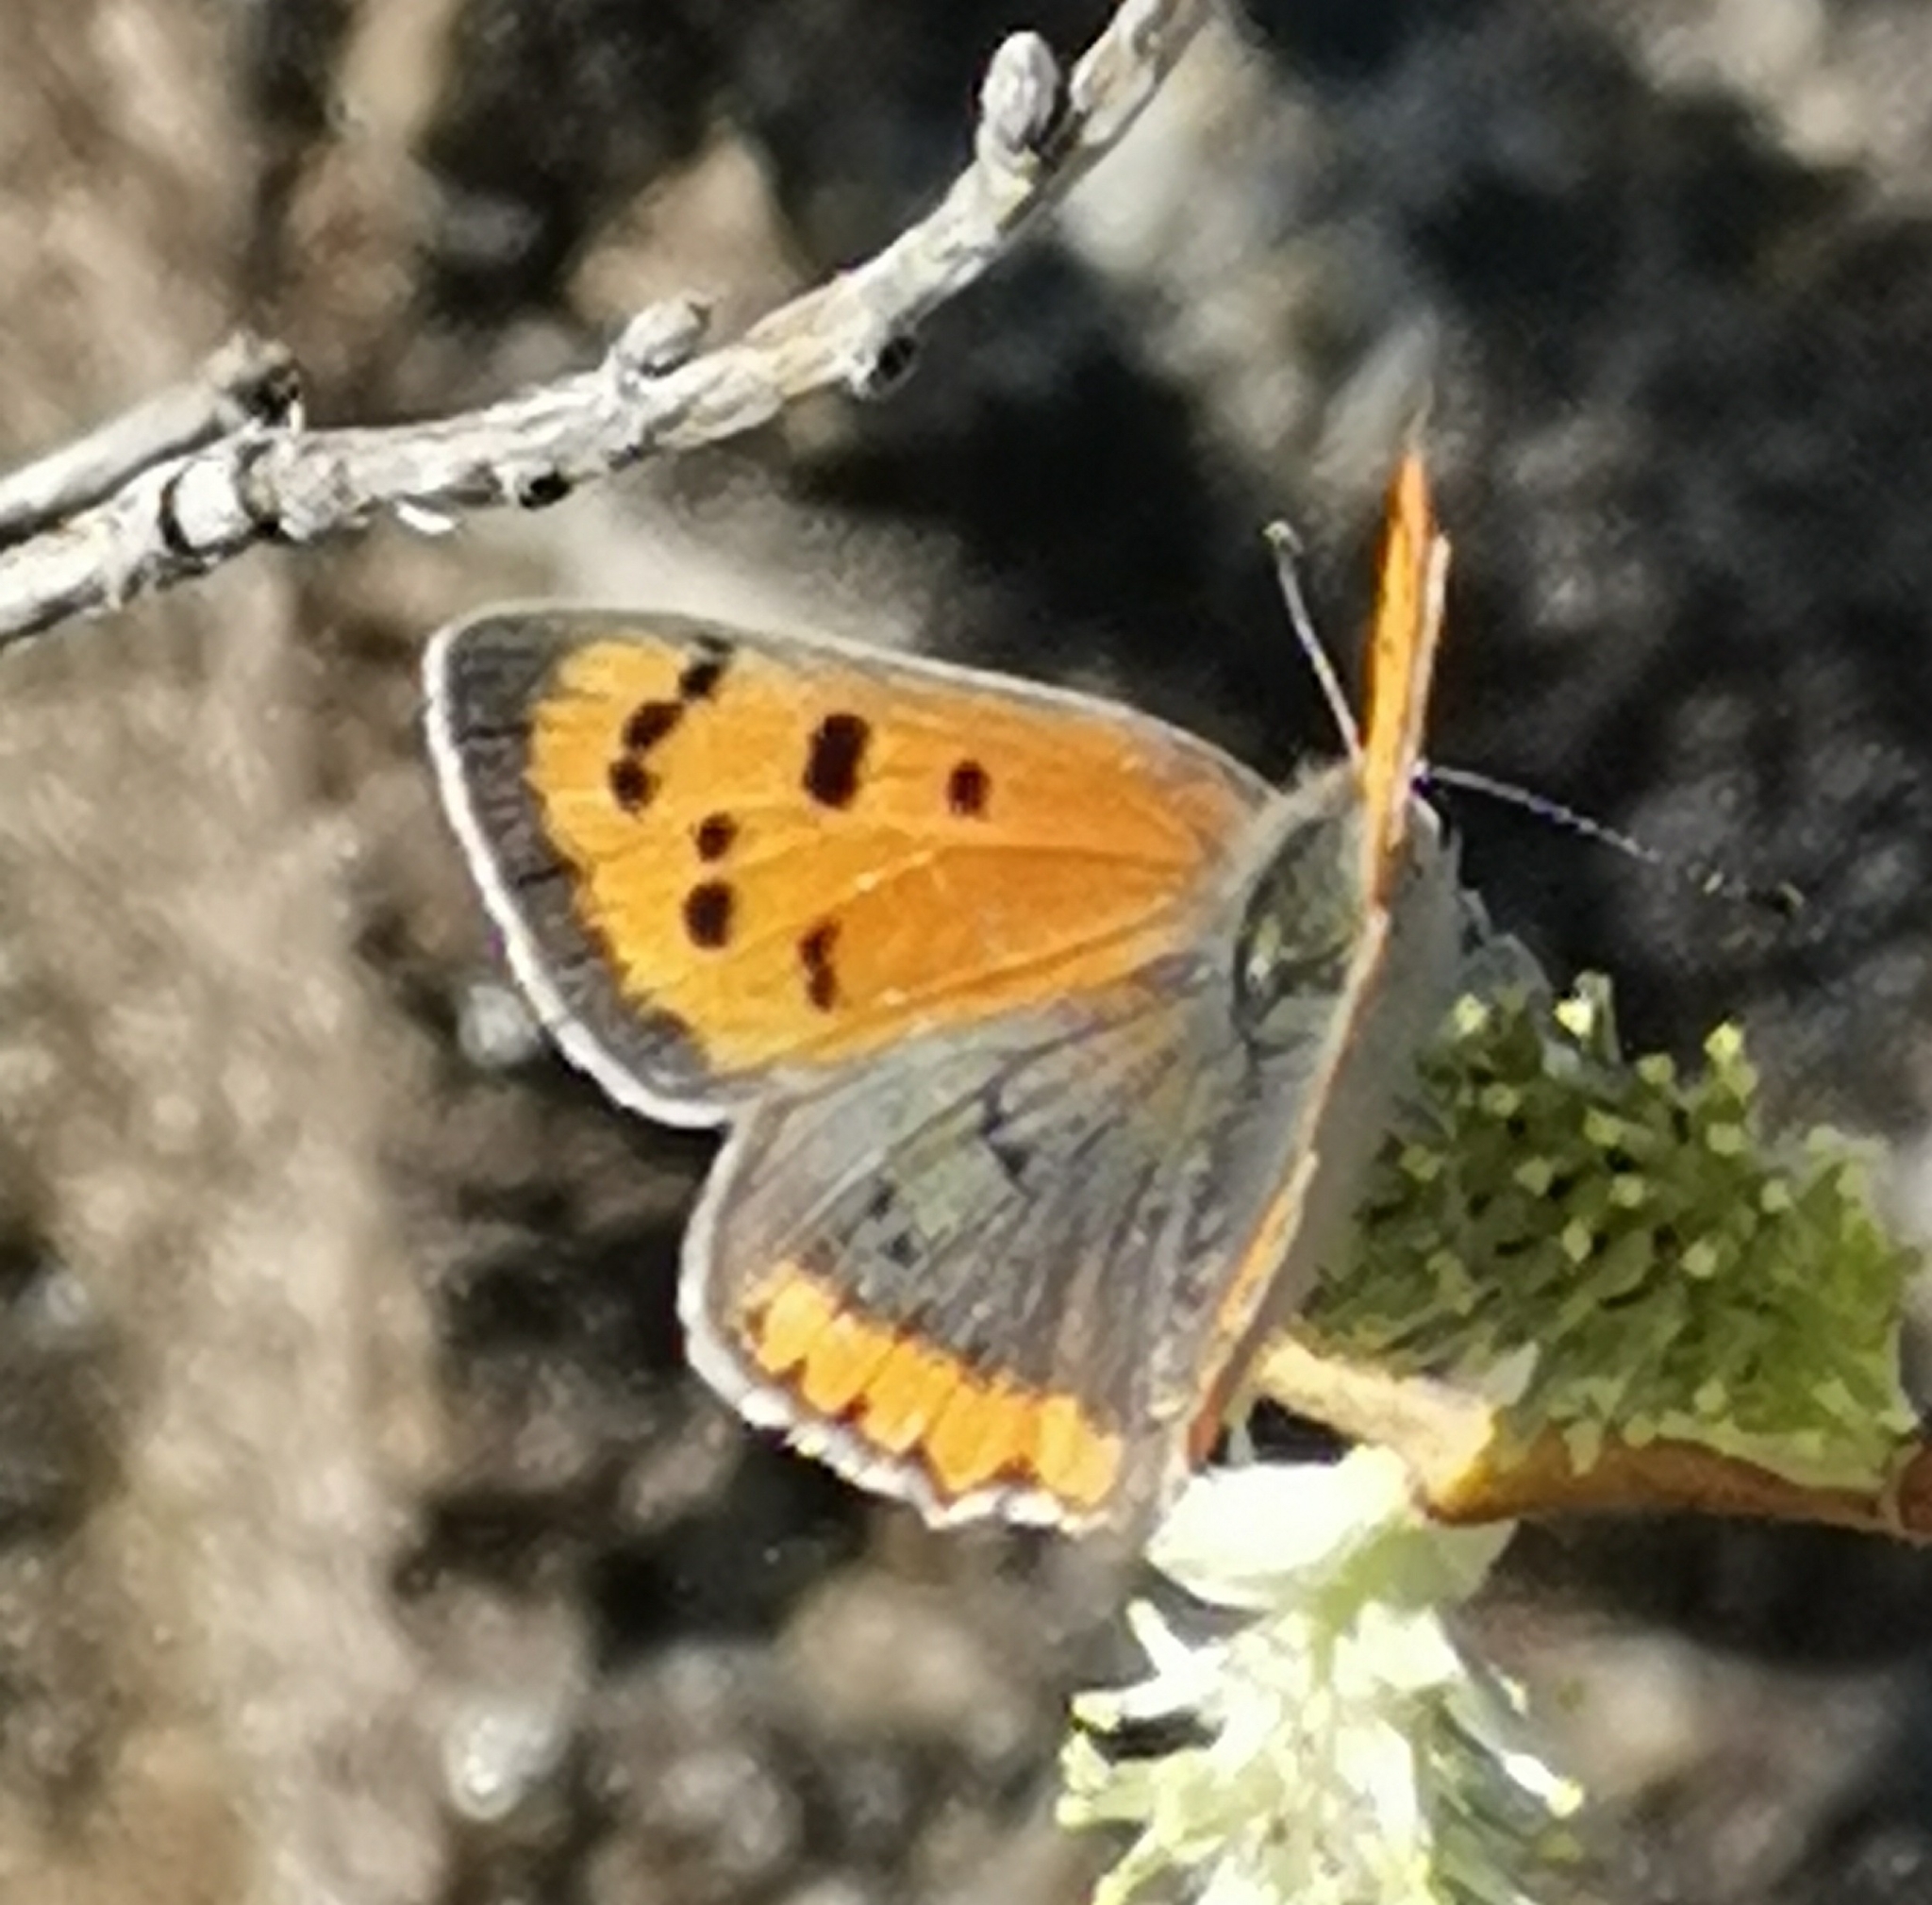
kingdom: Animalia
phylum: Arthropoda
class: Insecta
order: Lepidoptera
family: Lycaenidae
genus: Lycaena
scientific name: Lycaena phlaeas
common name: Small copper
